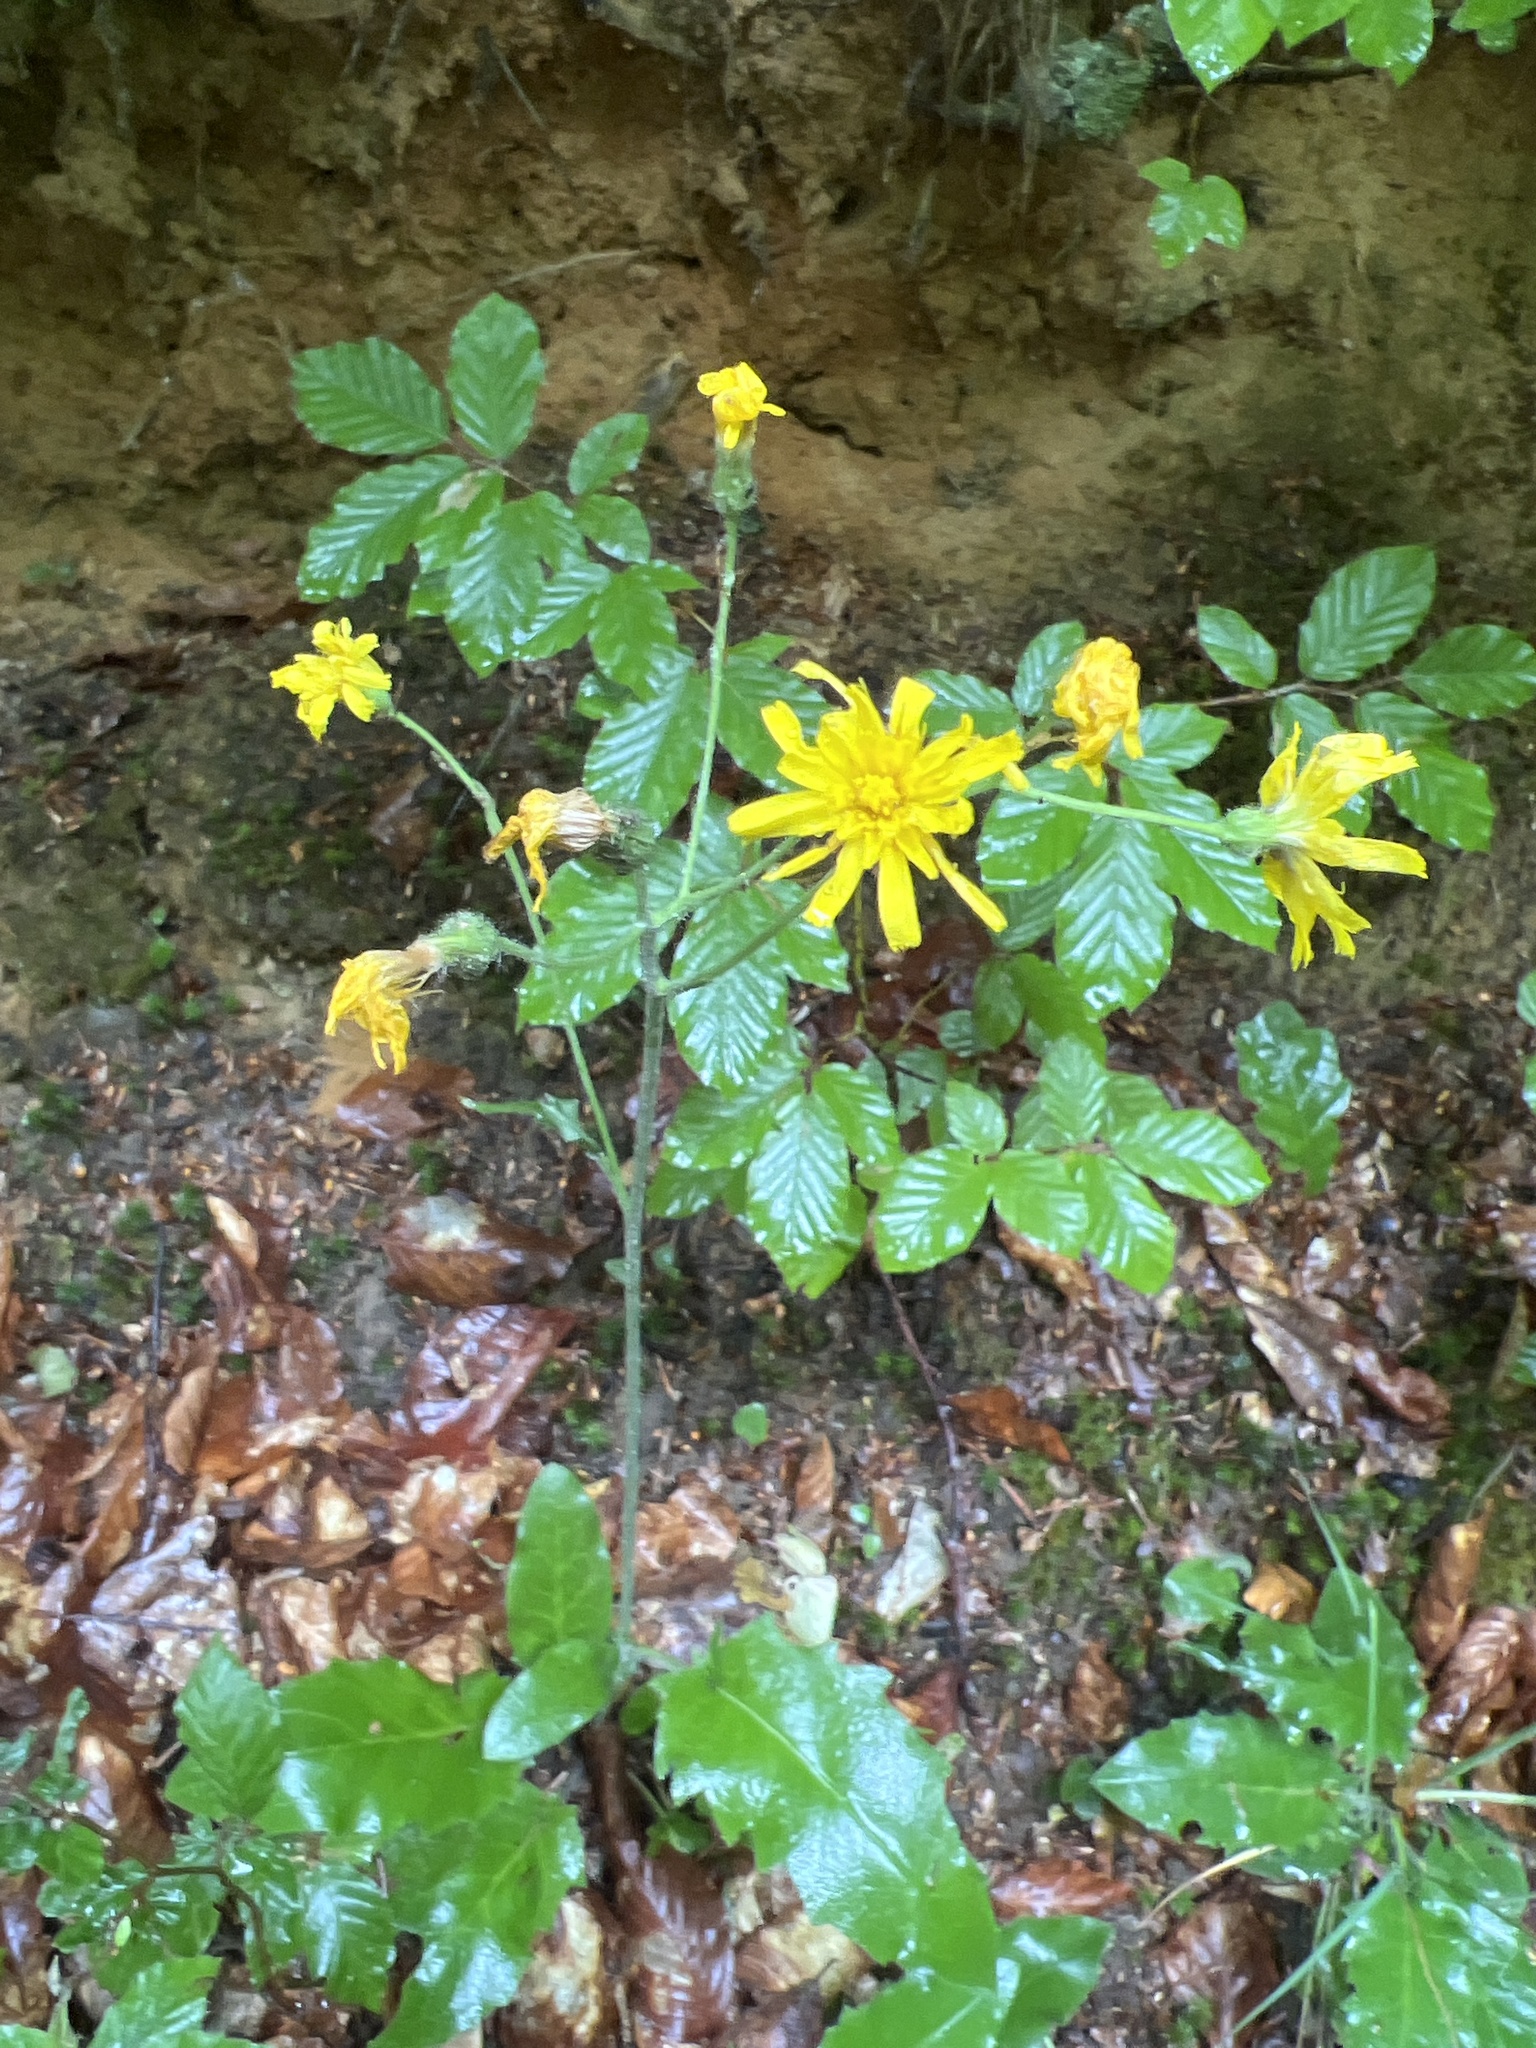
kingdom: Plantae
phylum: Tracheophyta
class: Magnoliopsida
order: Asterales
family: Asteraceae
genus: Hieracium
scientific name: Hieracium murorum
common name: Wall hawkweed
